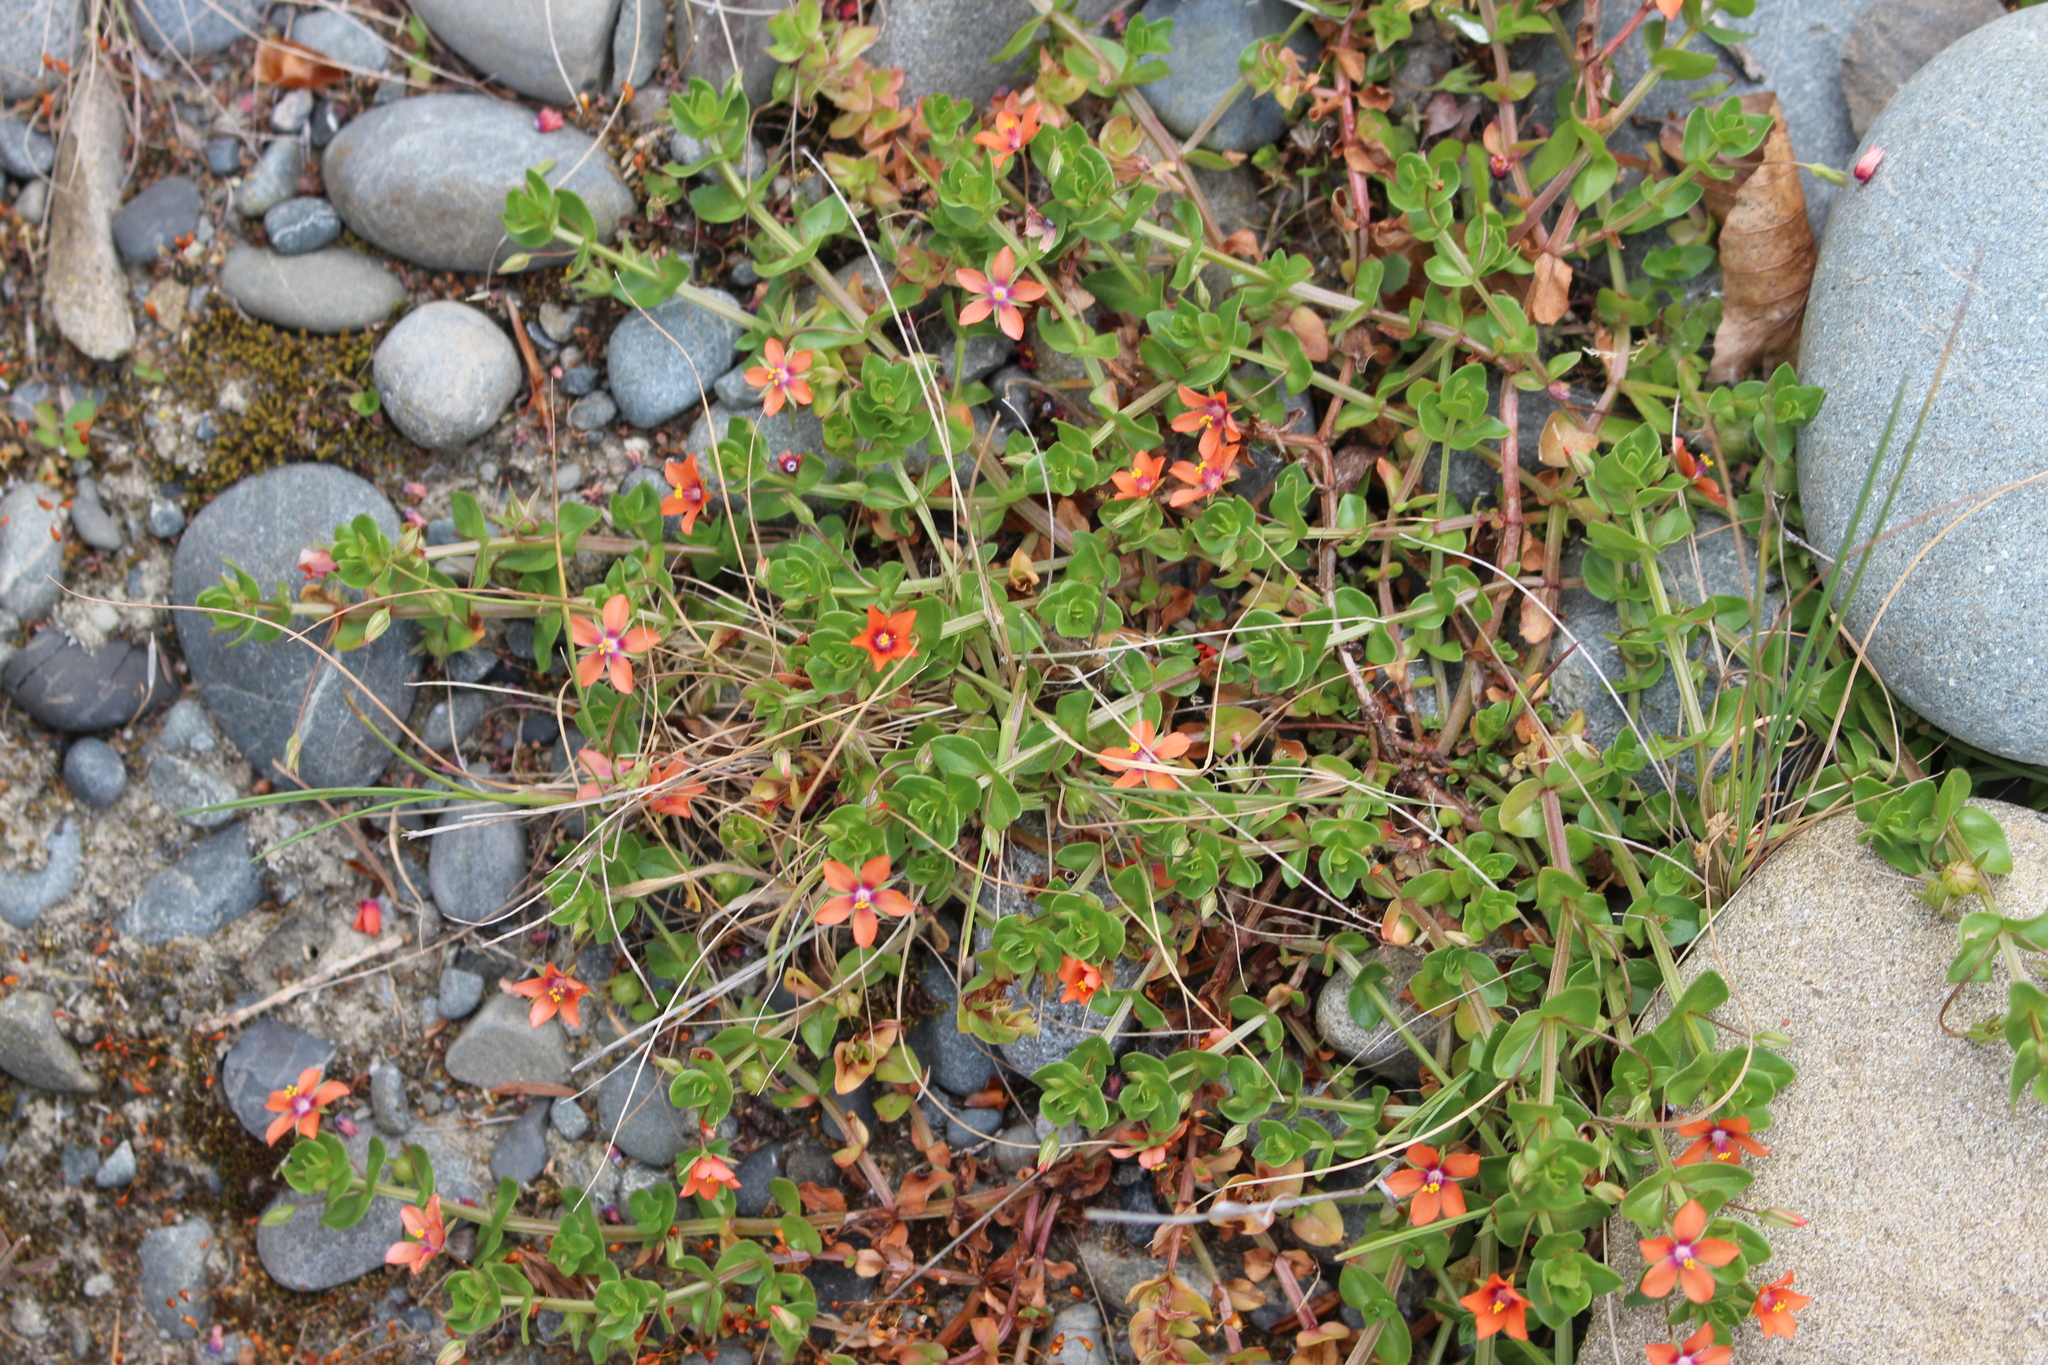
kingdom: Plantae
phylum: Tracheophyta
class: Magnoliopsida
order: Ericales
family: Primulaceae
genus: Lysimachia
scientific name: Lysimachia arvensis
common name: Scarlet pimpernel
